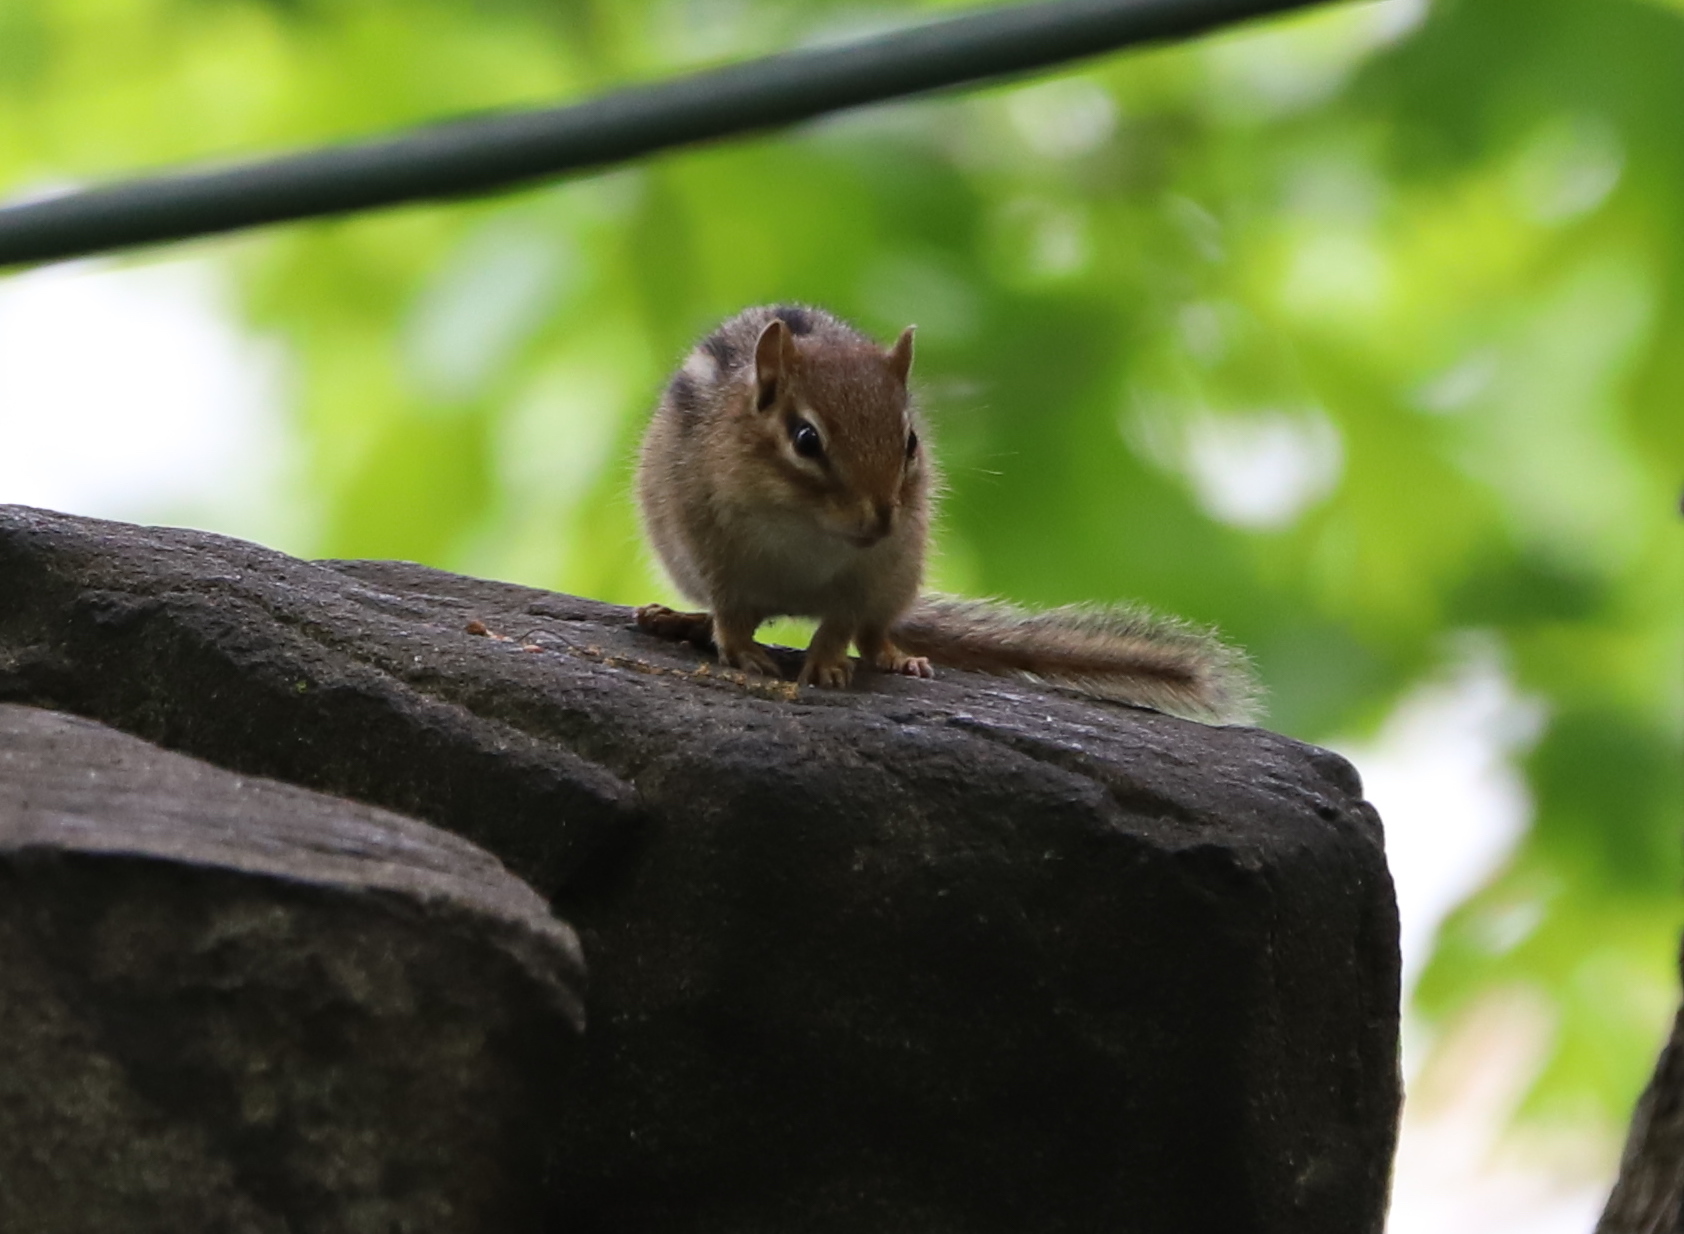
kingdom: Animalia
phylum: Chordata
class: Mammalia
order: Rodentia
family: Sciuridae
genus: Tamias
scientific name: Tamias striatus
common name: Eastern chipmunk
